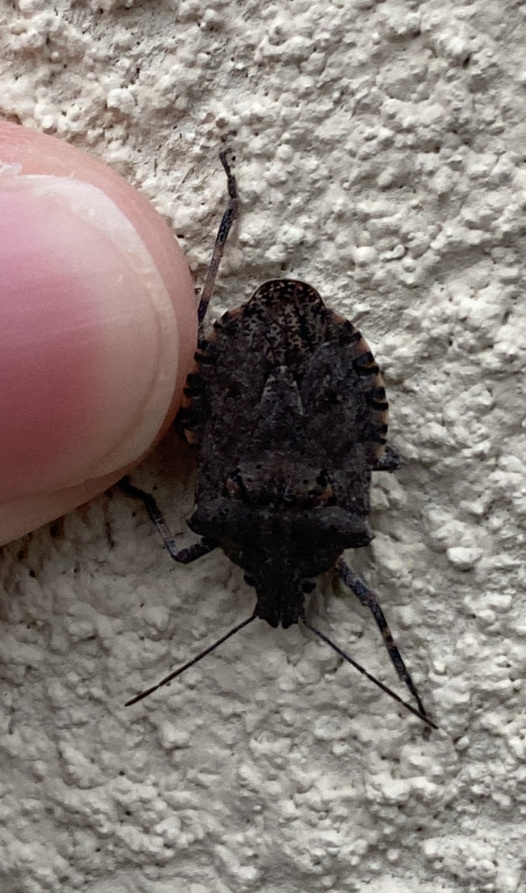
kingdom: Animalia
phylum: Arthropoda
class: Insecta
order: Hemiptera
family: Pentatomidae
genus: Brochymena
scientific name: Brochymena quadripustulata
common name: Four-humped stink bug
